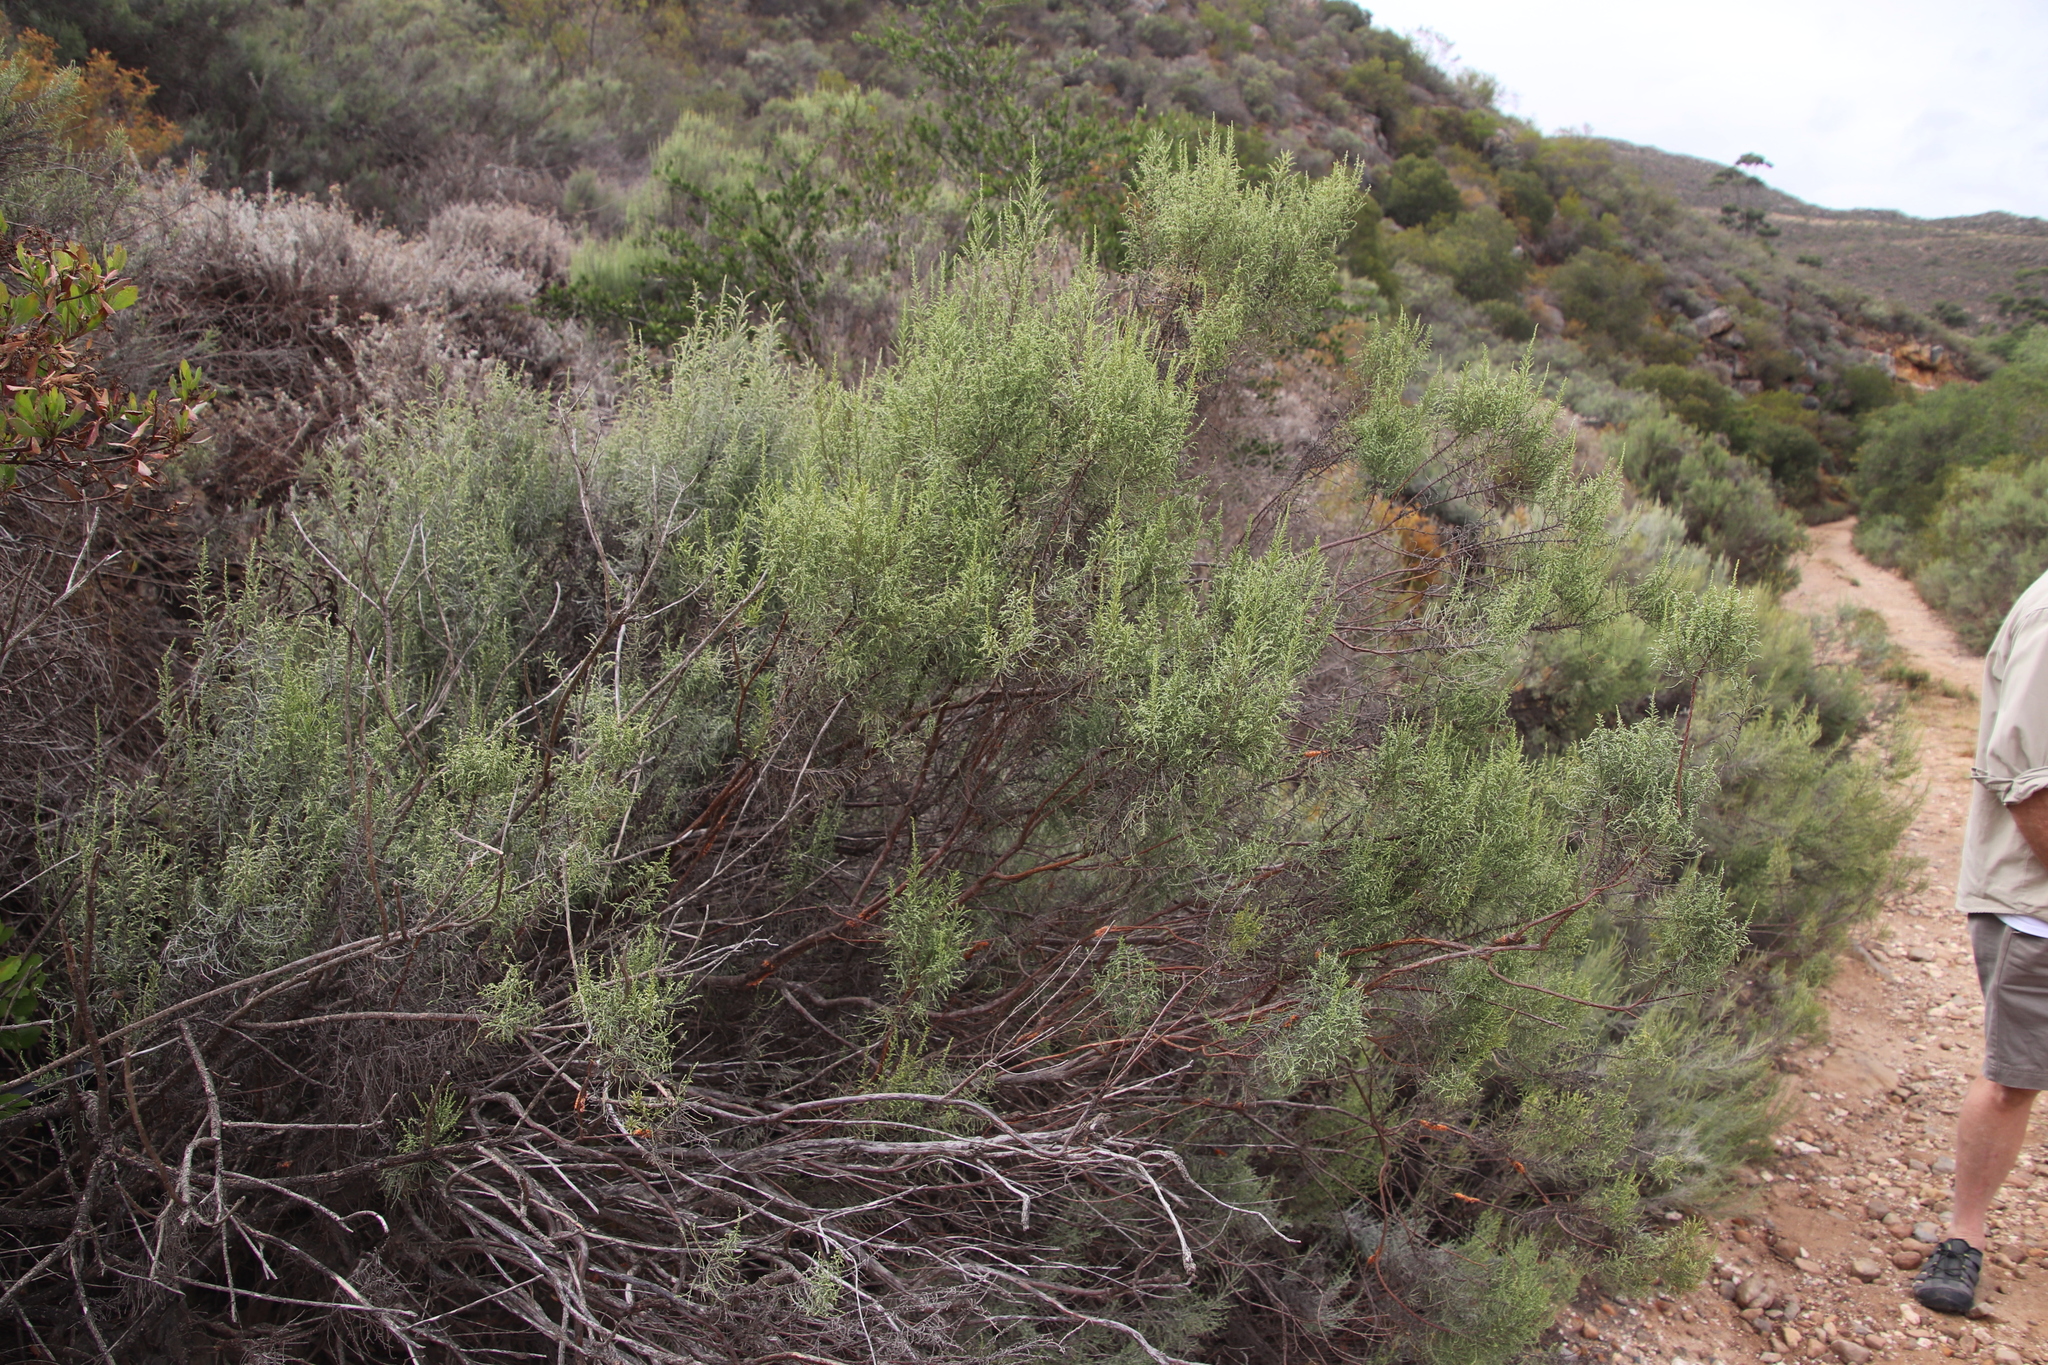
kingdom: Plantae
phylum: Tracheophyta
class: Magnoliopsida
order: Asterales
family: Asteraceae
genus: Dicerothamnus
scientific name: Dicerothamnus rhinocerotis
